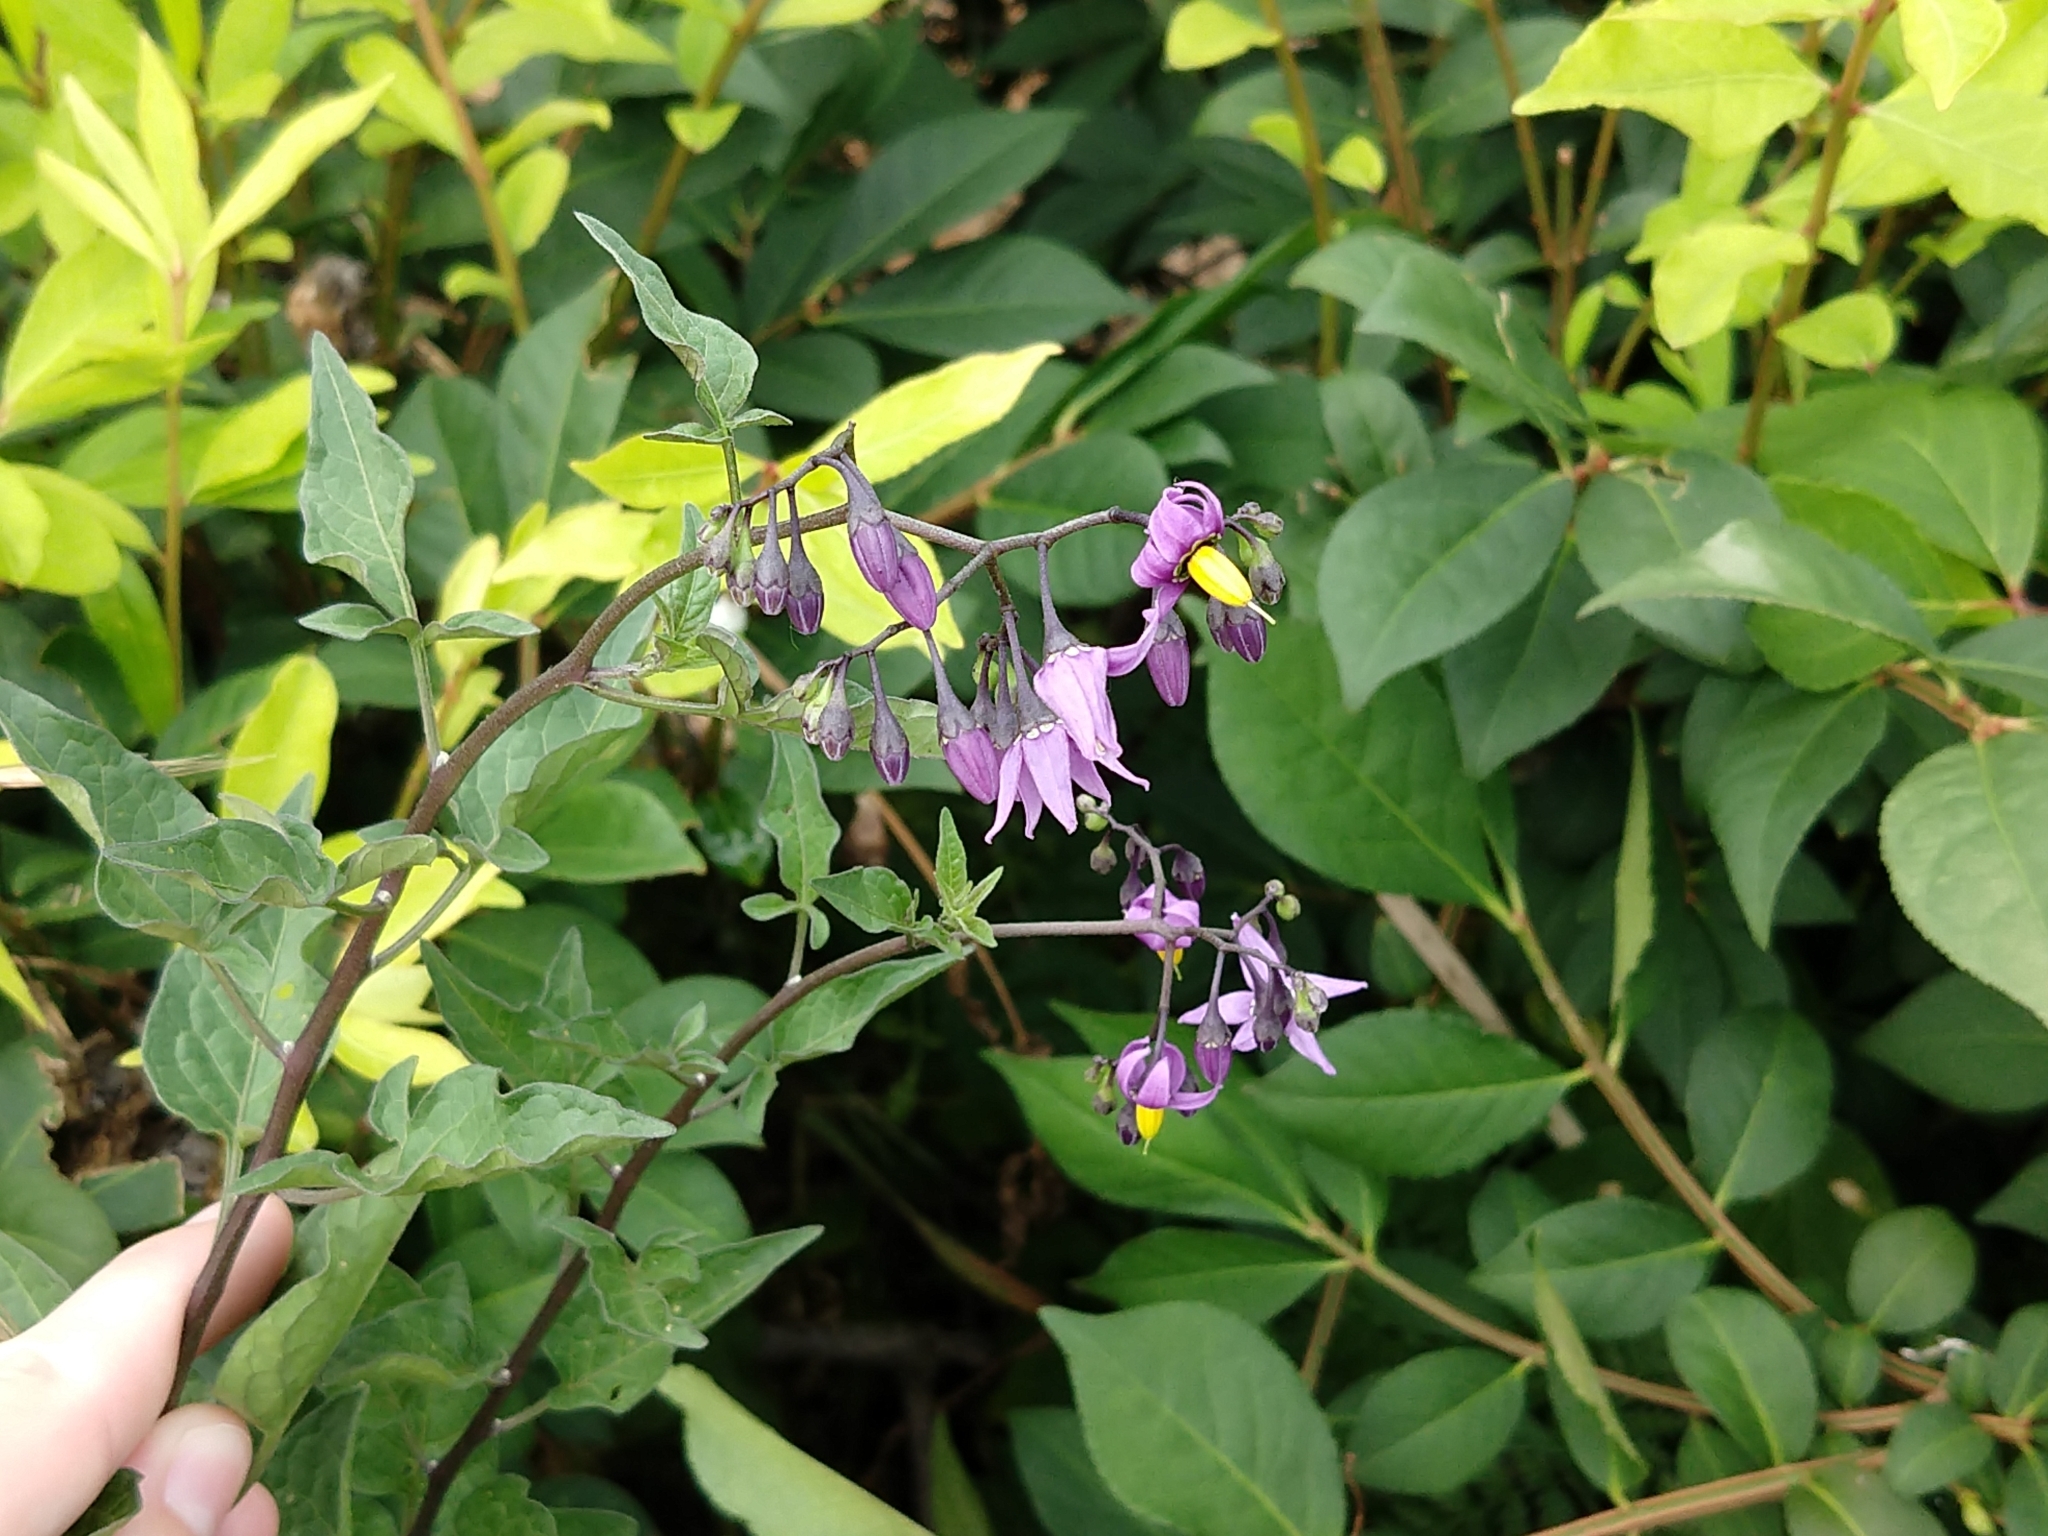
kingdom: Plantae
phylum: Tracheophyta
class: Magnoliopsida
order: Solanales
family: Solanaceae
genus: Solanum
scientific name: Solanum dulcamara
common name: Climbing nightshade
